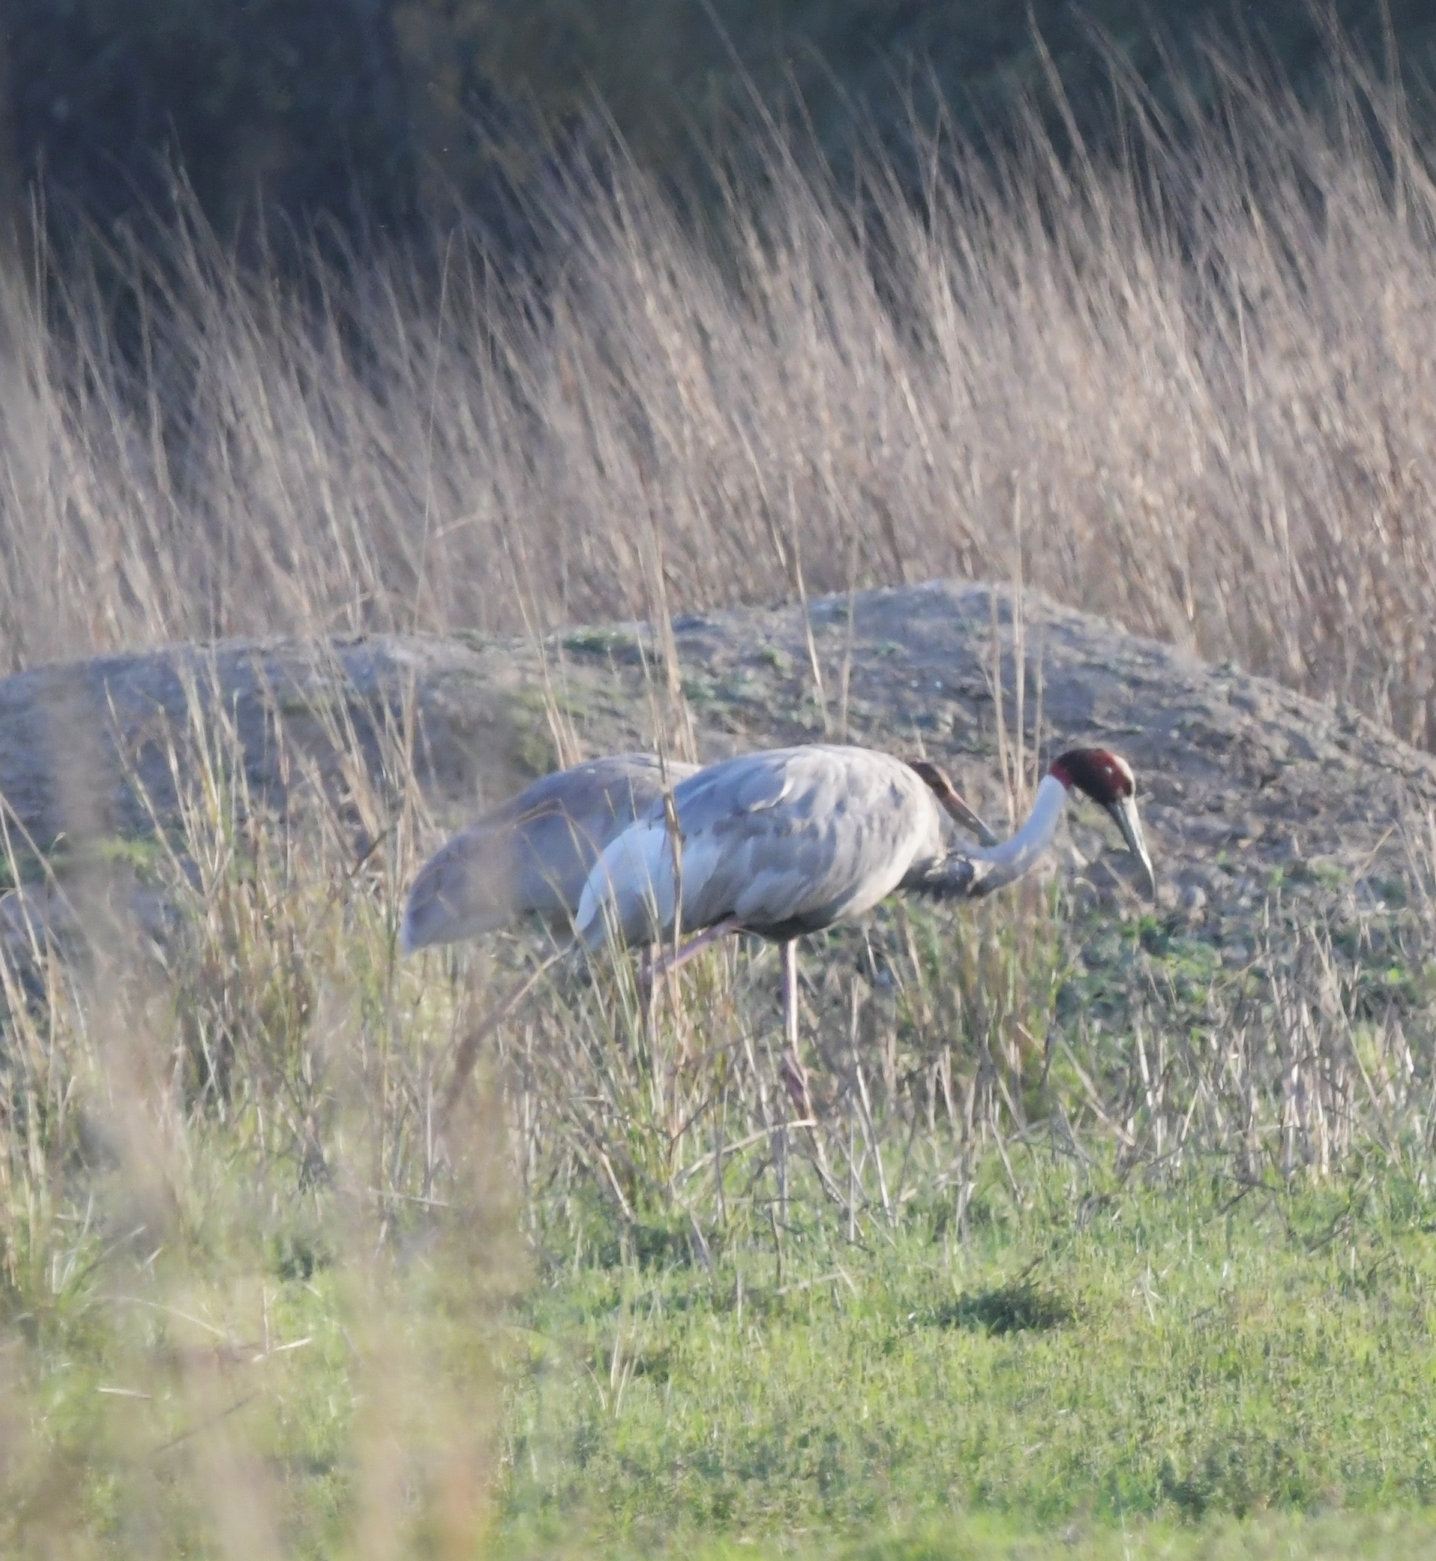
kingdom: Animalia
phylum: Chordata
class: Aves
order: Gruiformes
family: Gruidae
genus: Grus
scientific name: Grus antigone
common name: Sarus crane
